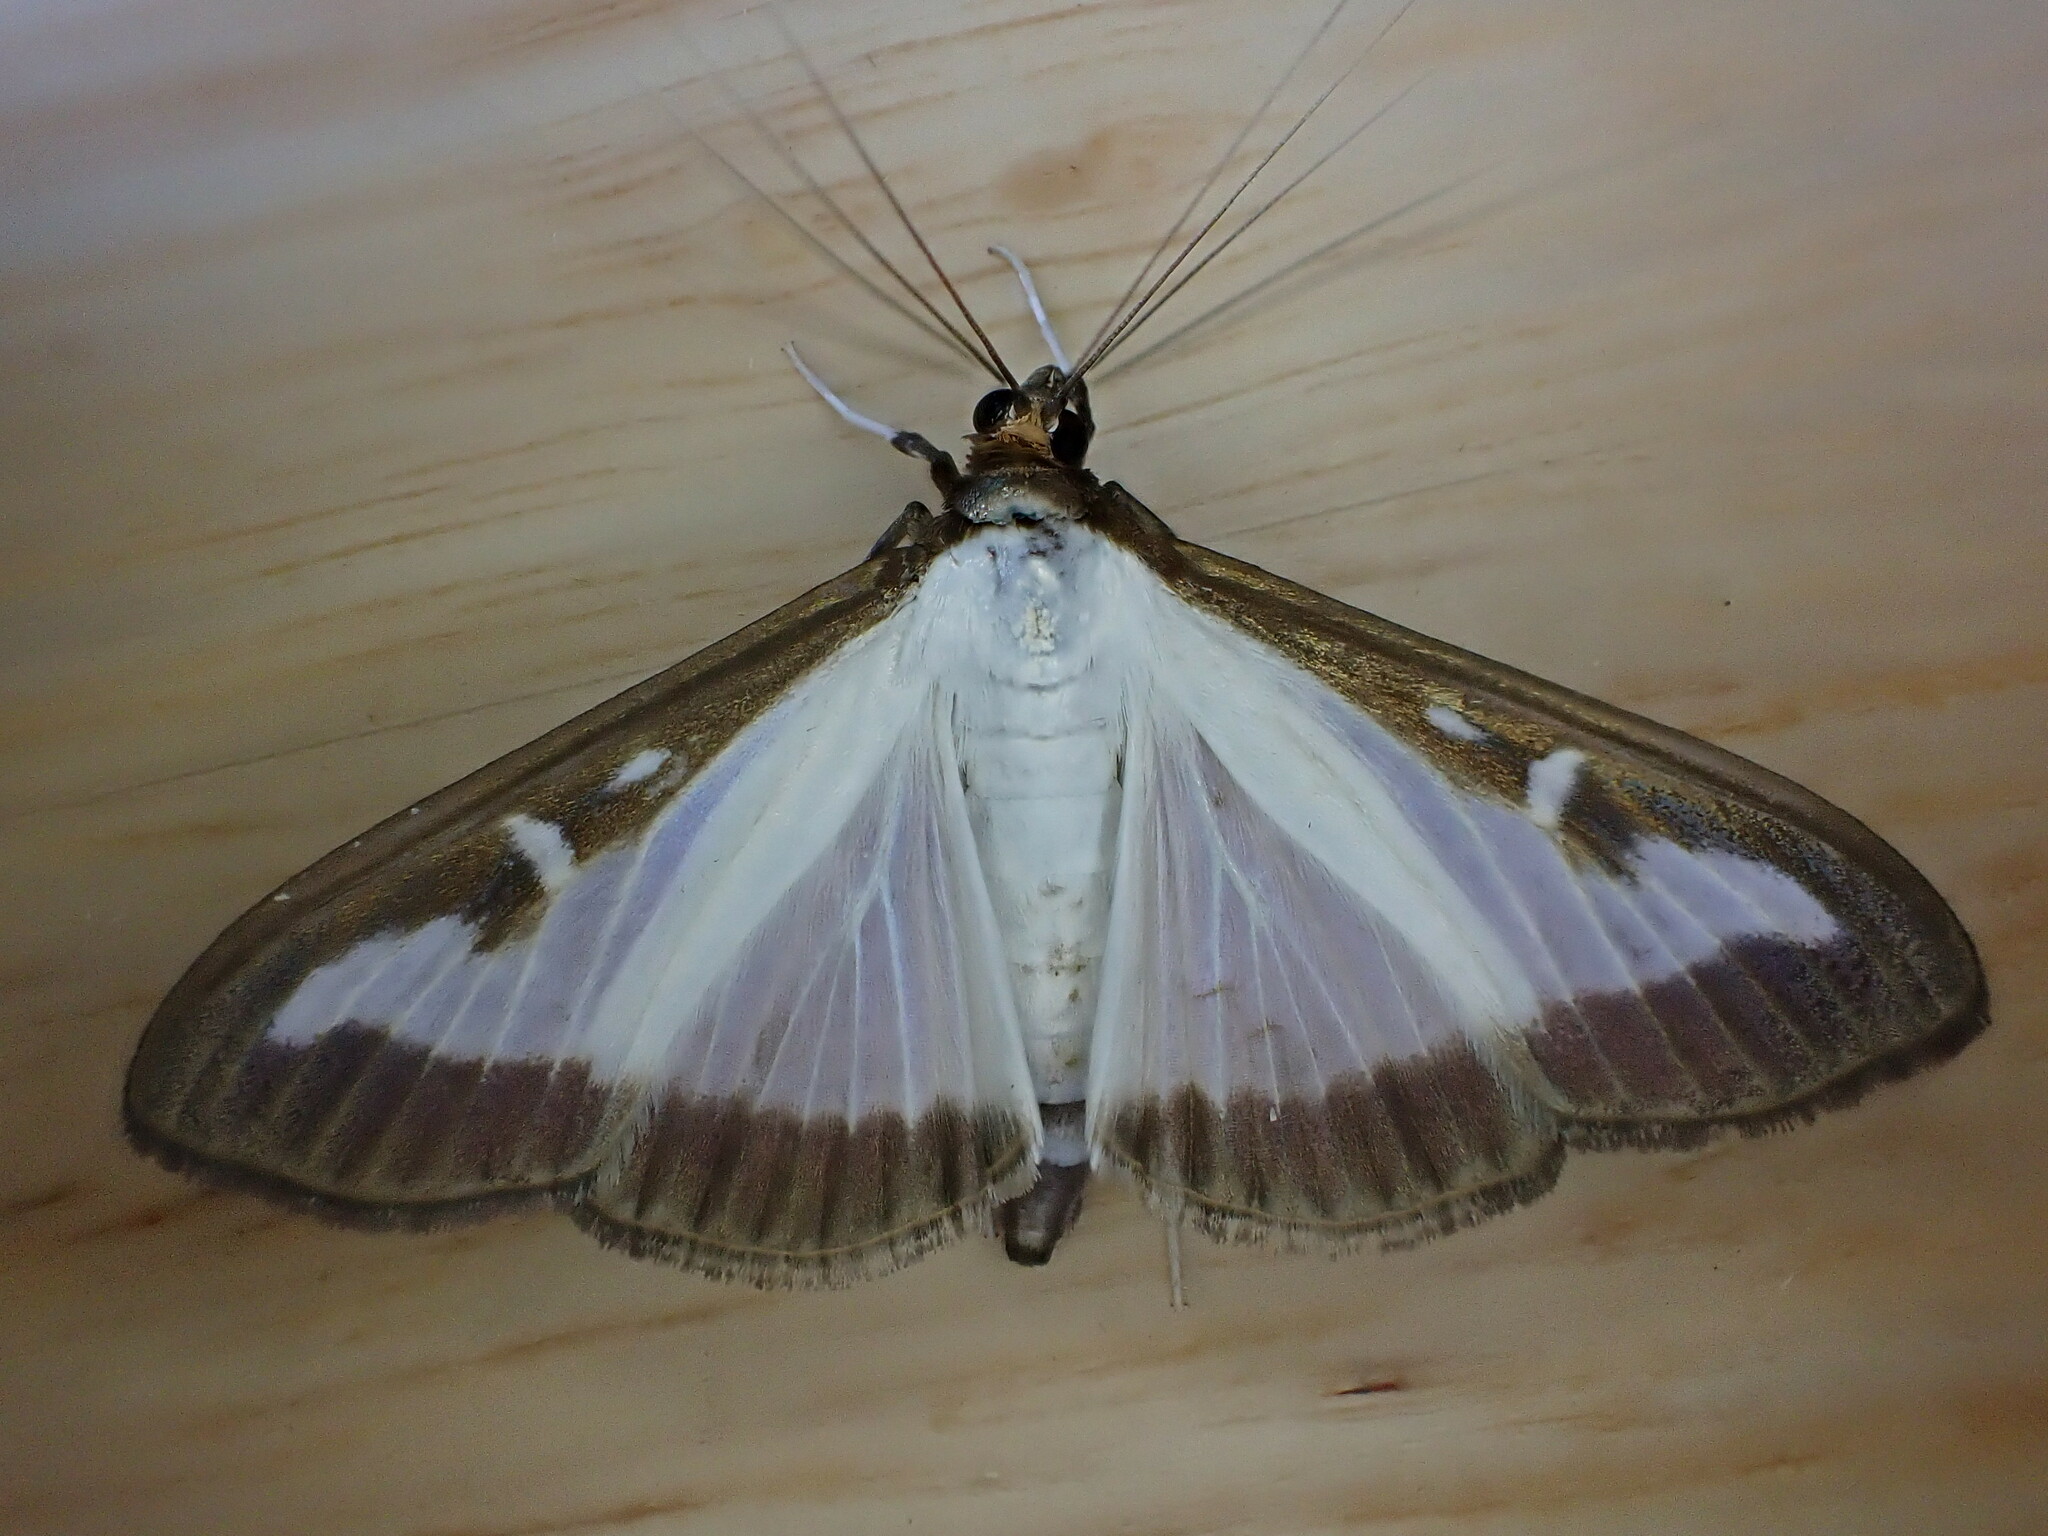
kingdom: Animalia
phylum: Arthropoda
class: Insecta
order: Lepidoptera
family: Crambidae
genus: Cydalima
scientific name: Cydalima perspectalis
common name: Box tree moth
